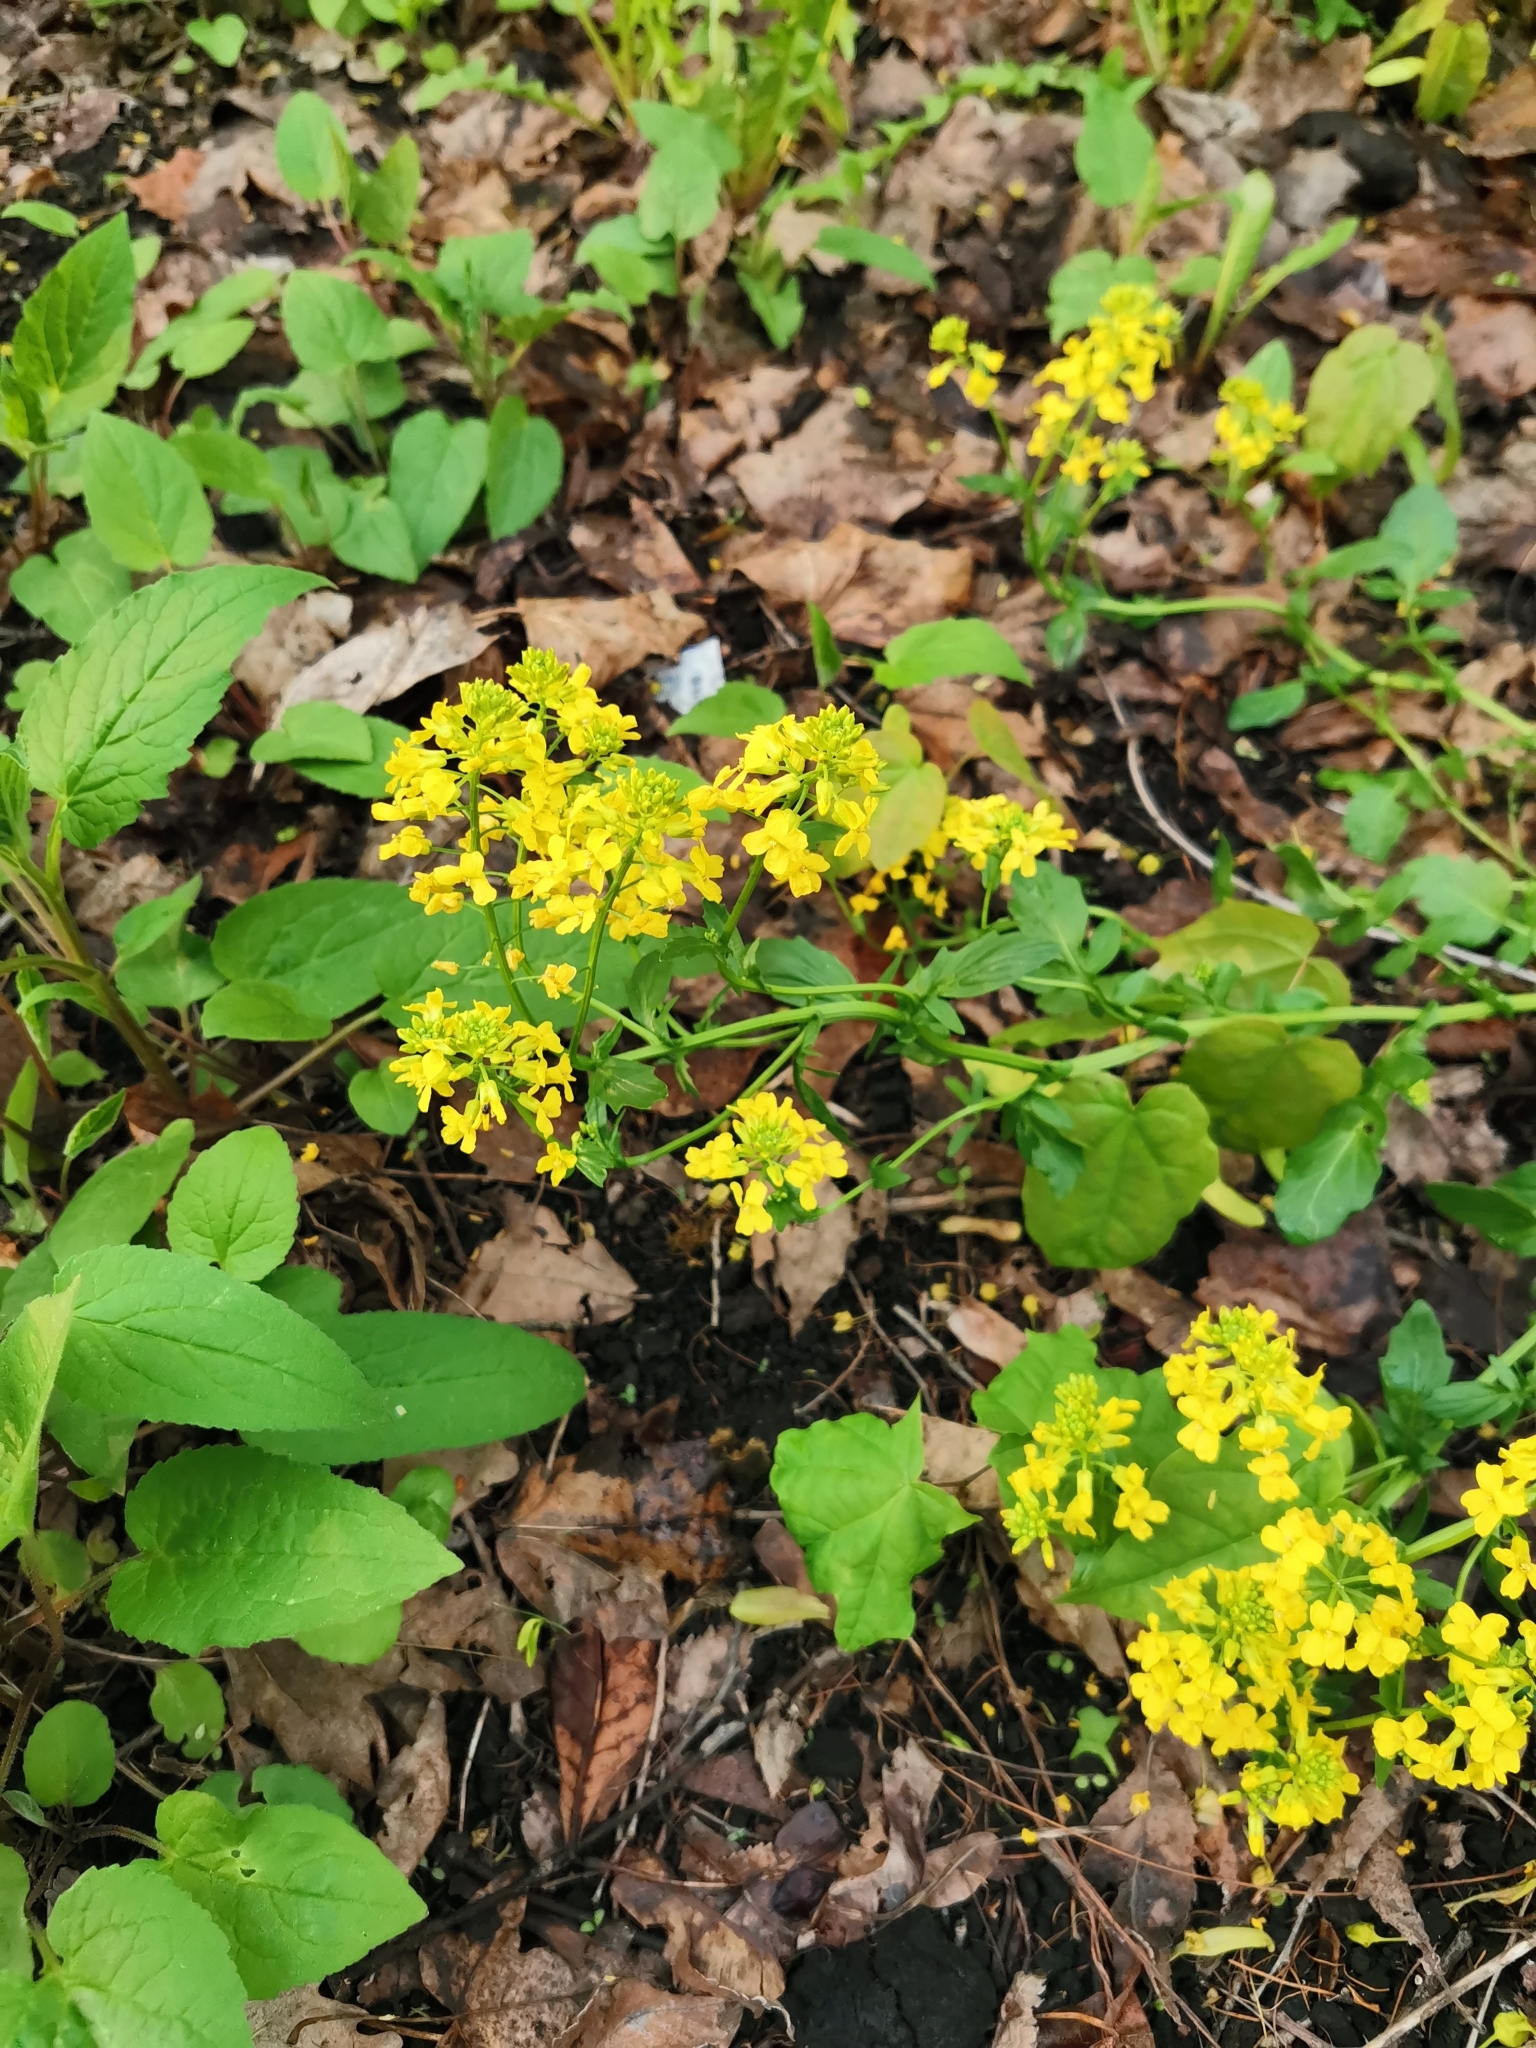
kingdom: Plantae
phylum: Tracheophyta
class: Magnoliopsida
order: Brassicales
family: Brassicaceae
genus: Barbarea
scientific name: Barbarea vulgaris
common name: Cressy-greens
